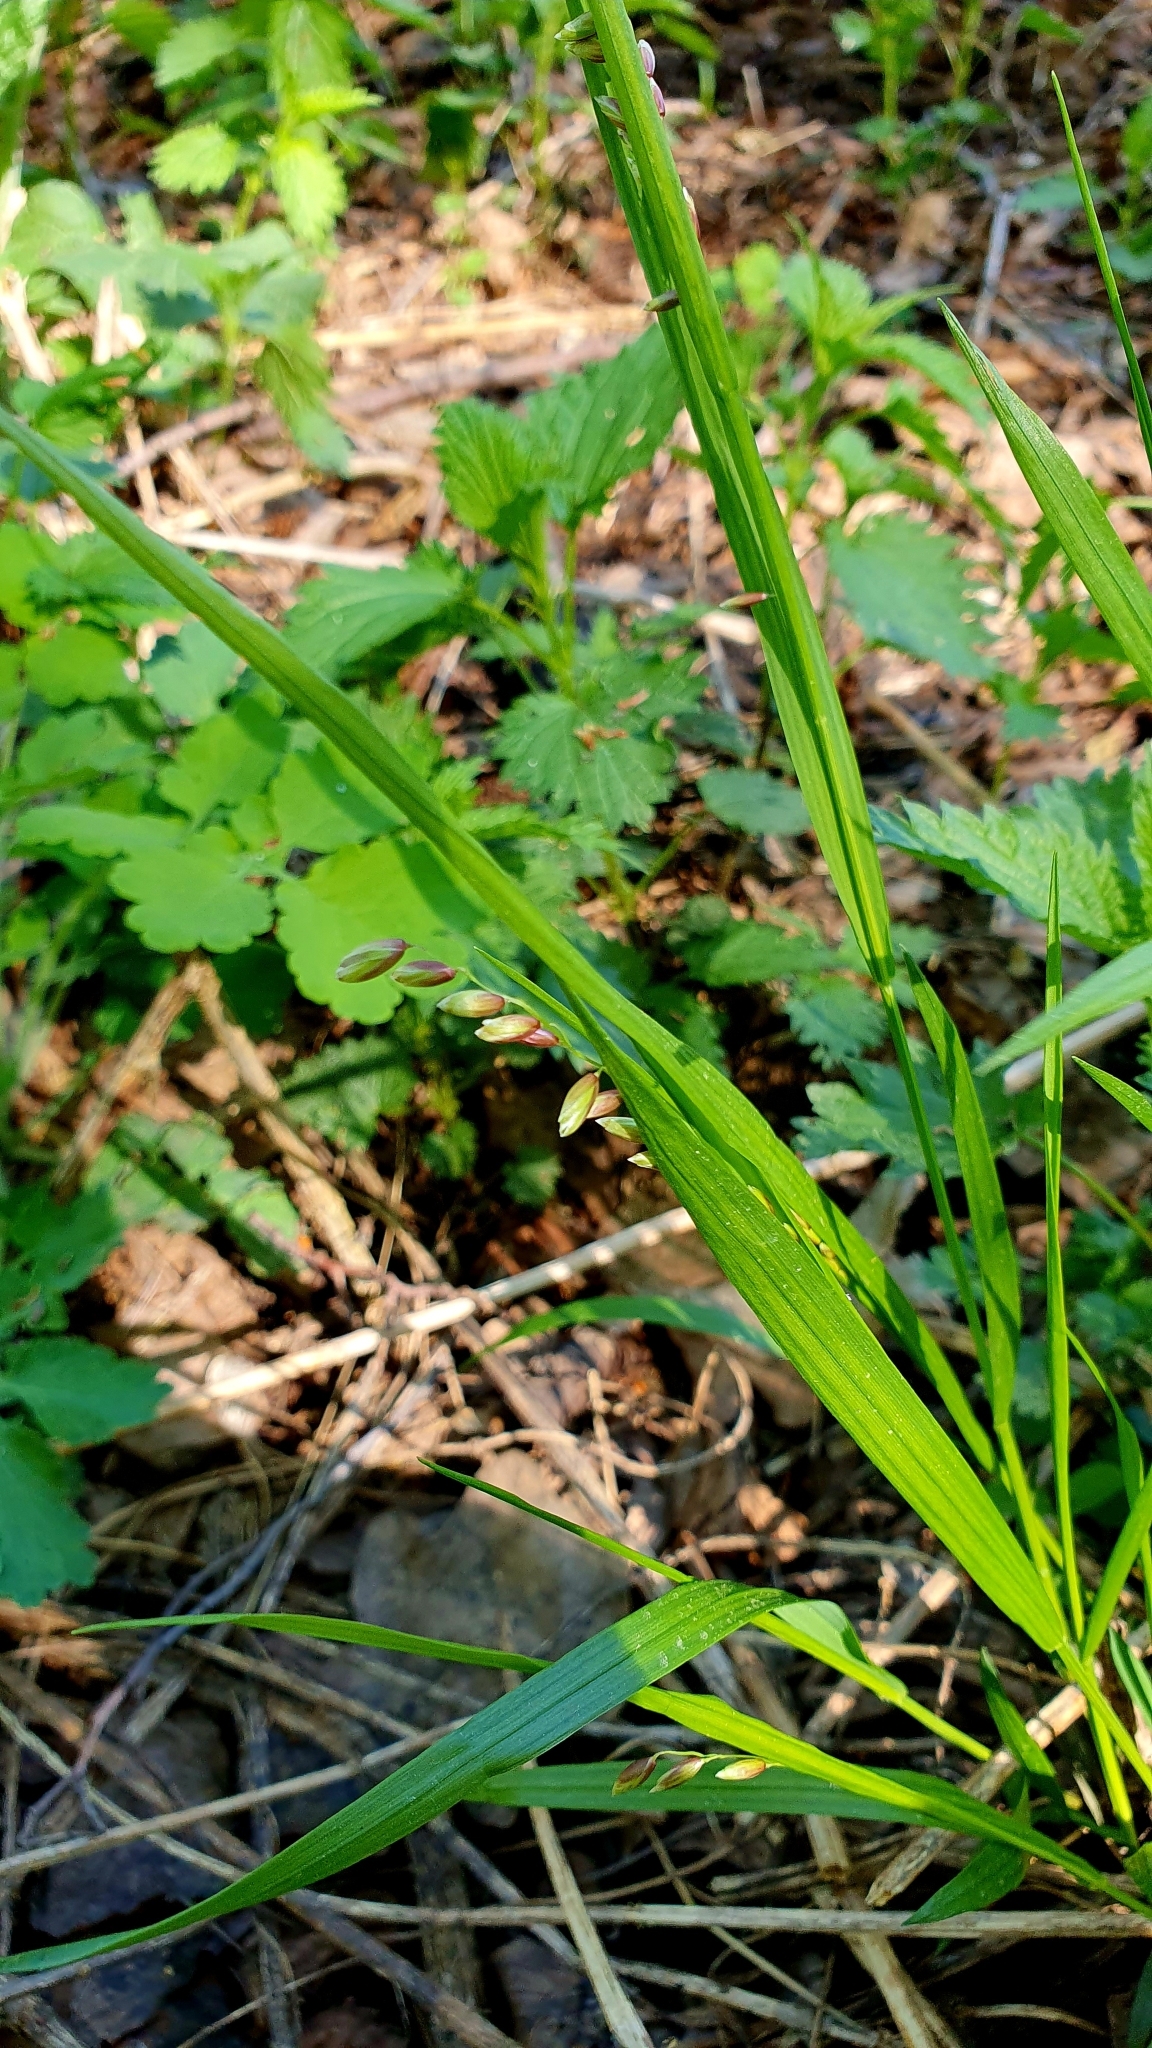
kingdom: Plantae
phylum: Tracheophyta
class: Liliopsida
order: Poales
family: Poaceae
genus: Melica
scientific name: Melica nutans
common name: Mountain melick
